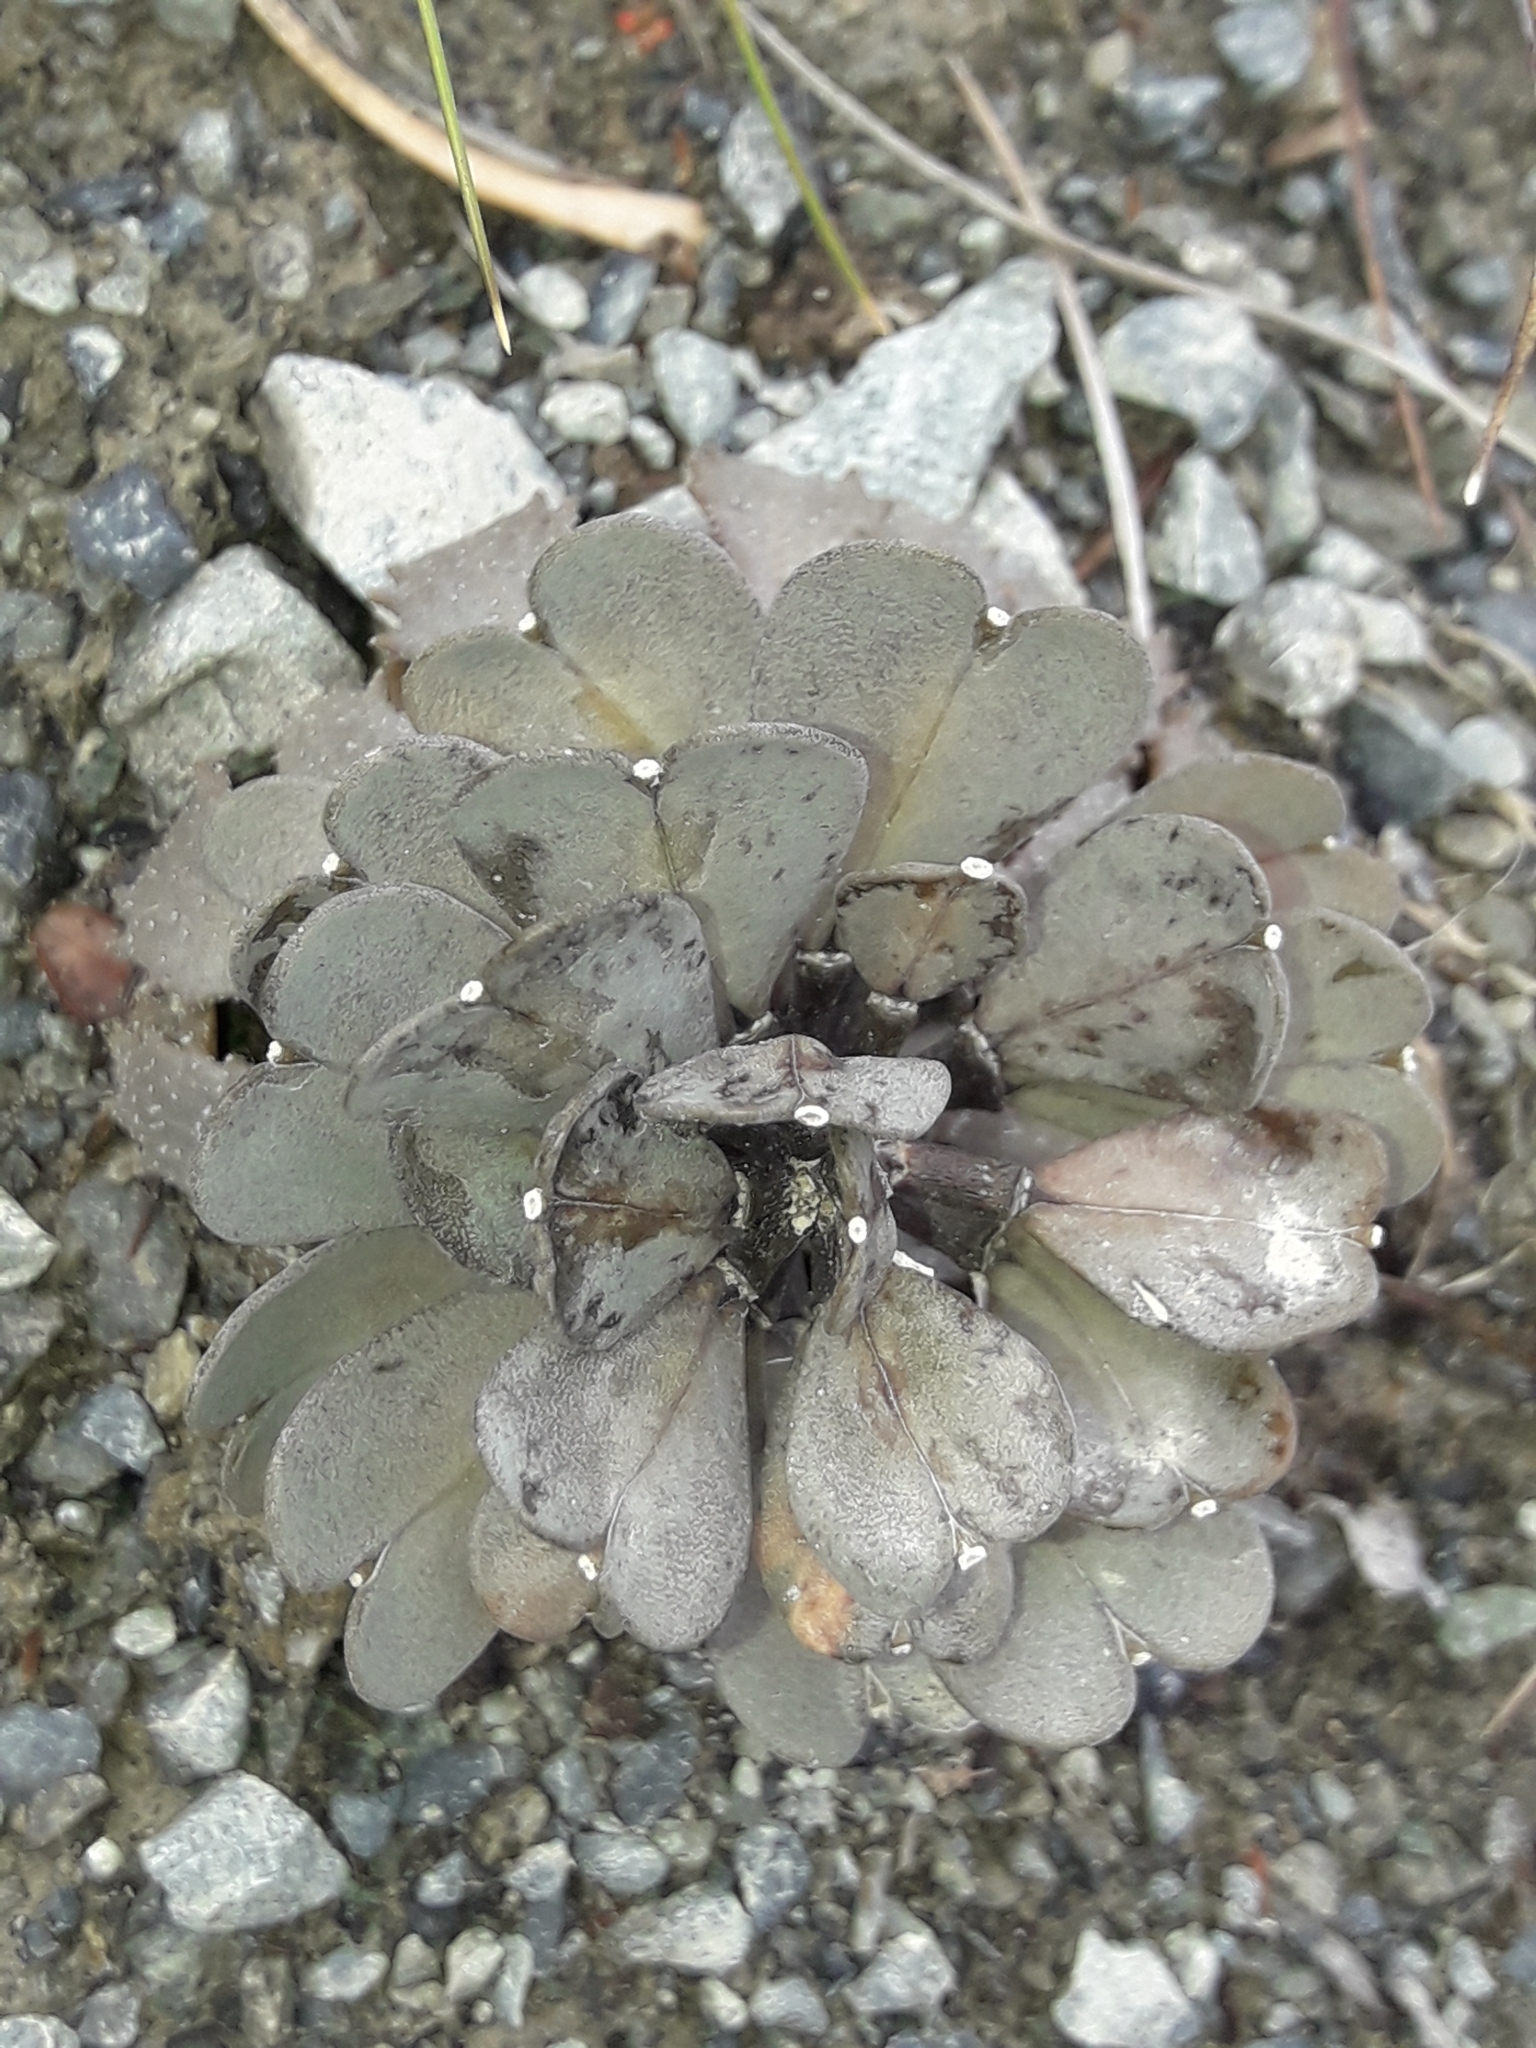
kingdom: Plantae
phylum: Tracheophyta
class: Magnoliopsida
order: Brassicales
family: Brassicaceae
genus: Notothlaspi
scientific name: Notothlaspi rosulatum
